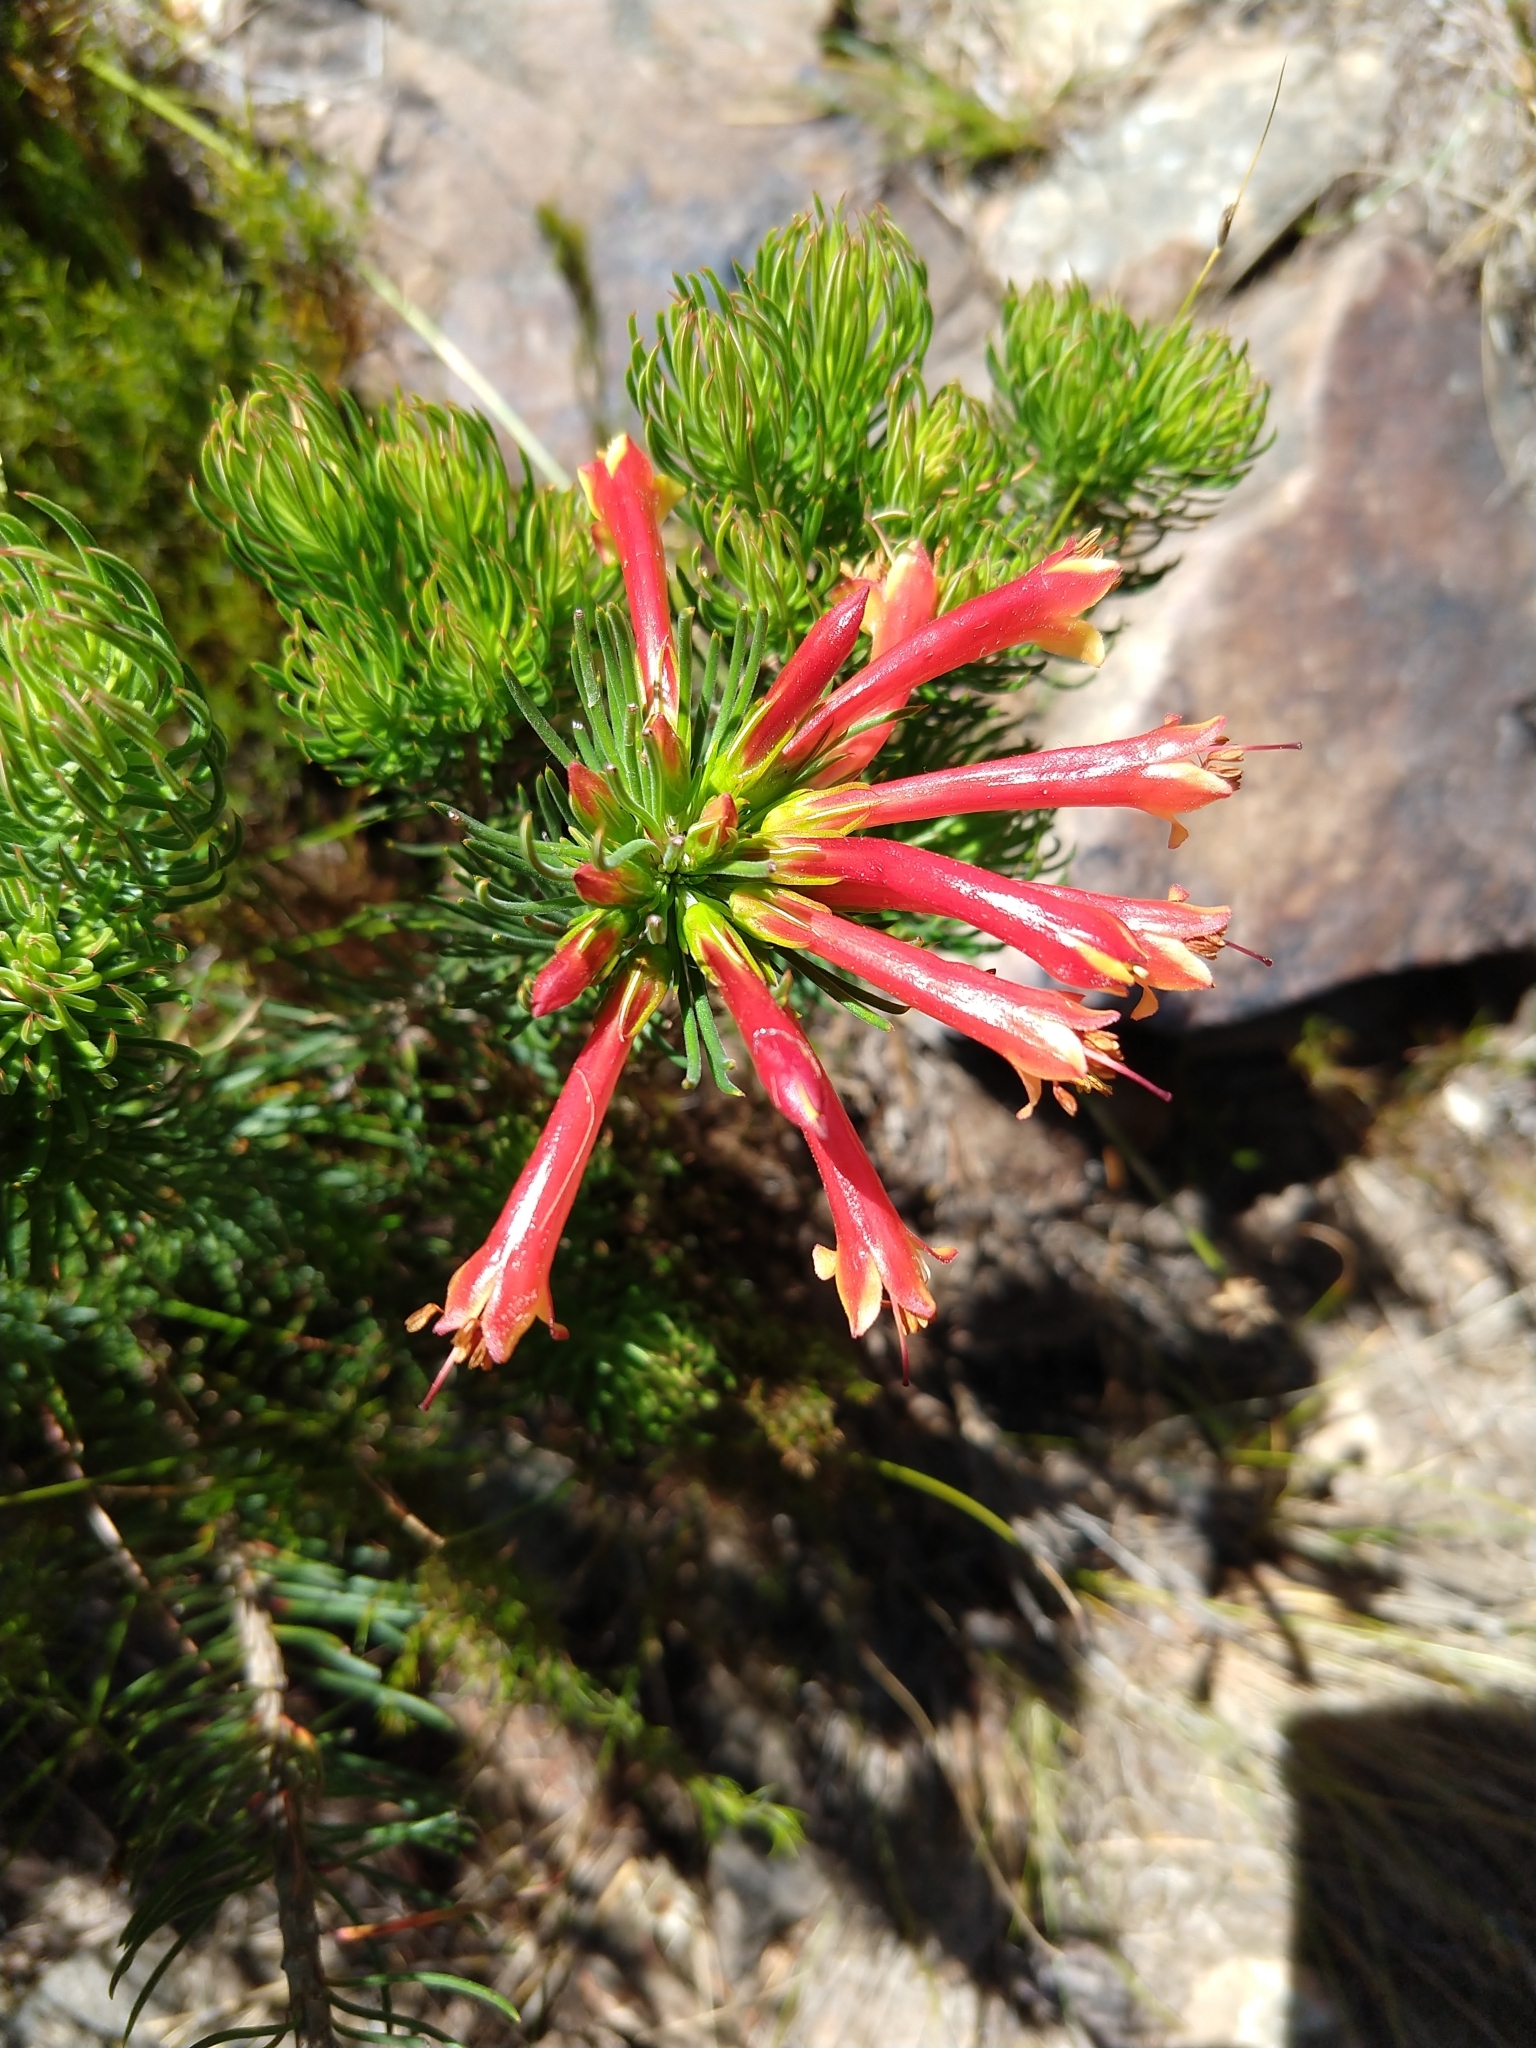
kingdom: Plantae
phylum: Tracheophyta
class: Magnoliopsida
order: Ericales
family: Ericaceae
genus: Erica
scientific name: Erica grandiflora
